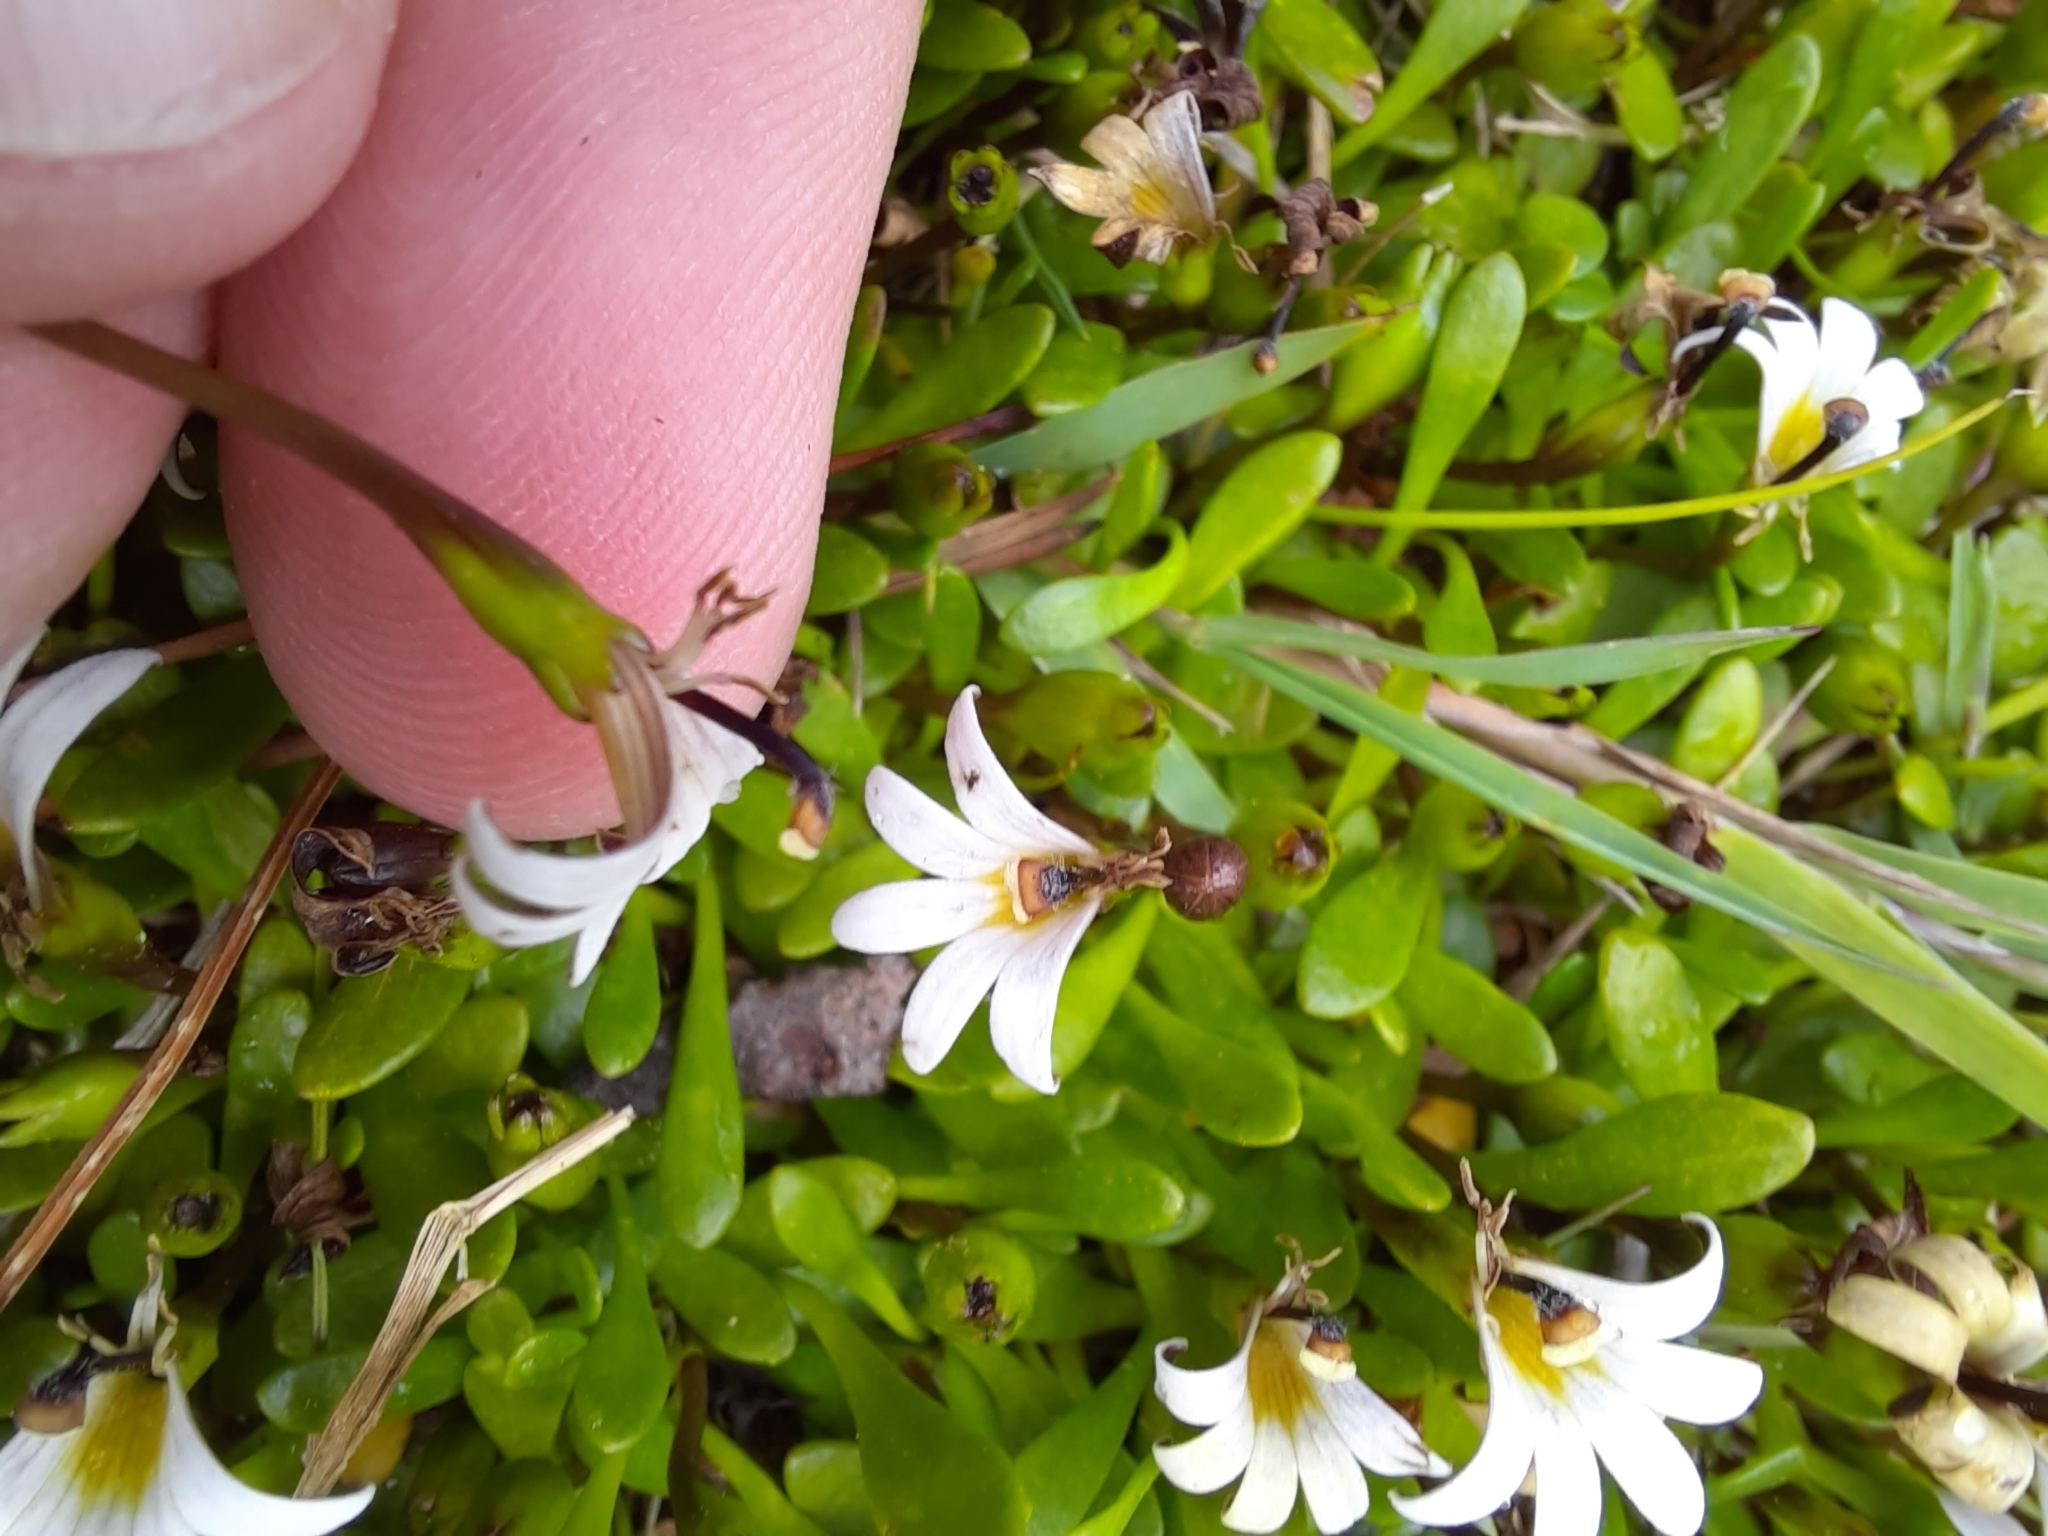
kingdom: Plantae
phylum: Tracheophyta
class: Magnoliopsida
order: Asterales
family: Goodeniaceae
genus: Goodenia
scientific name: Goodenia radicans
